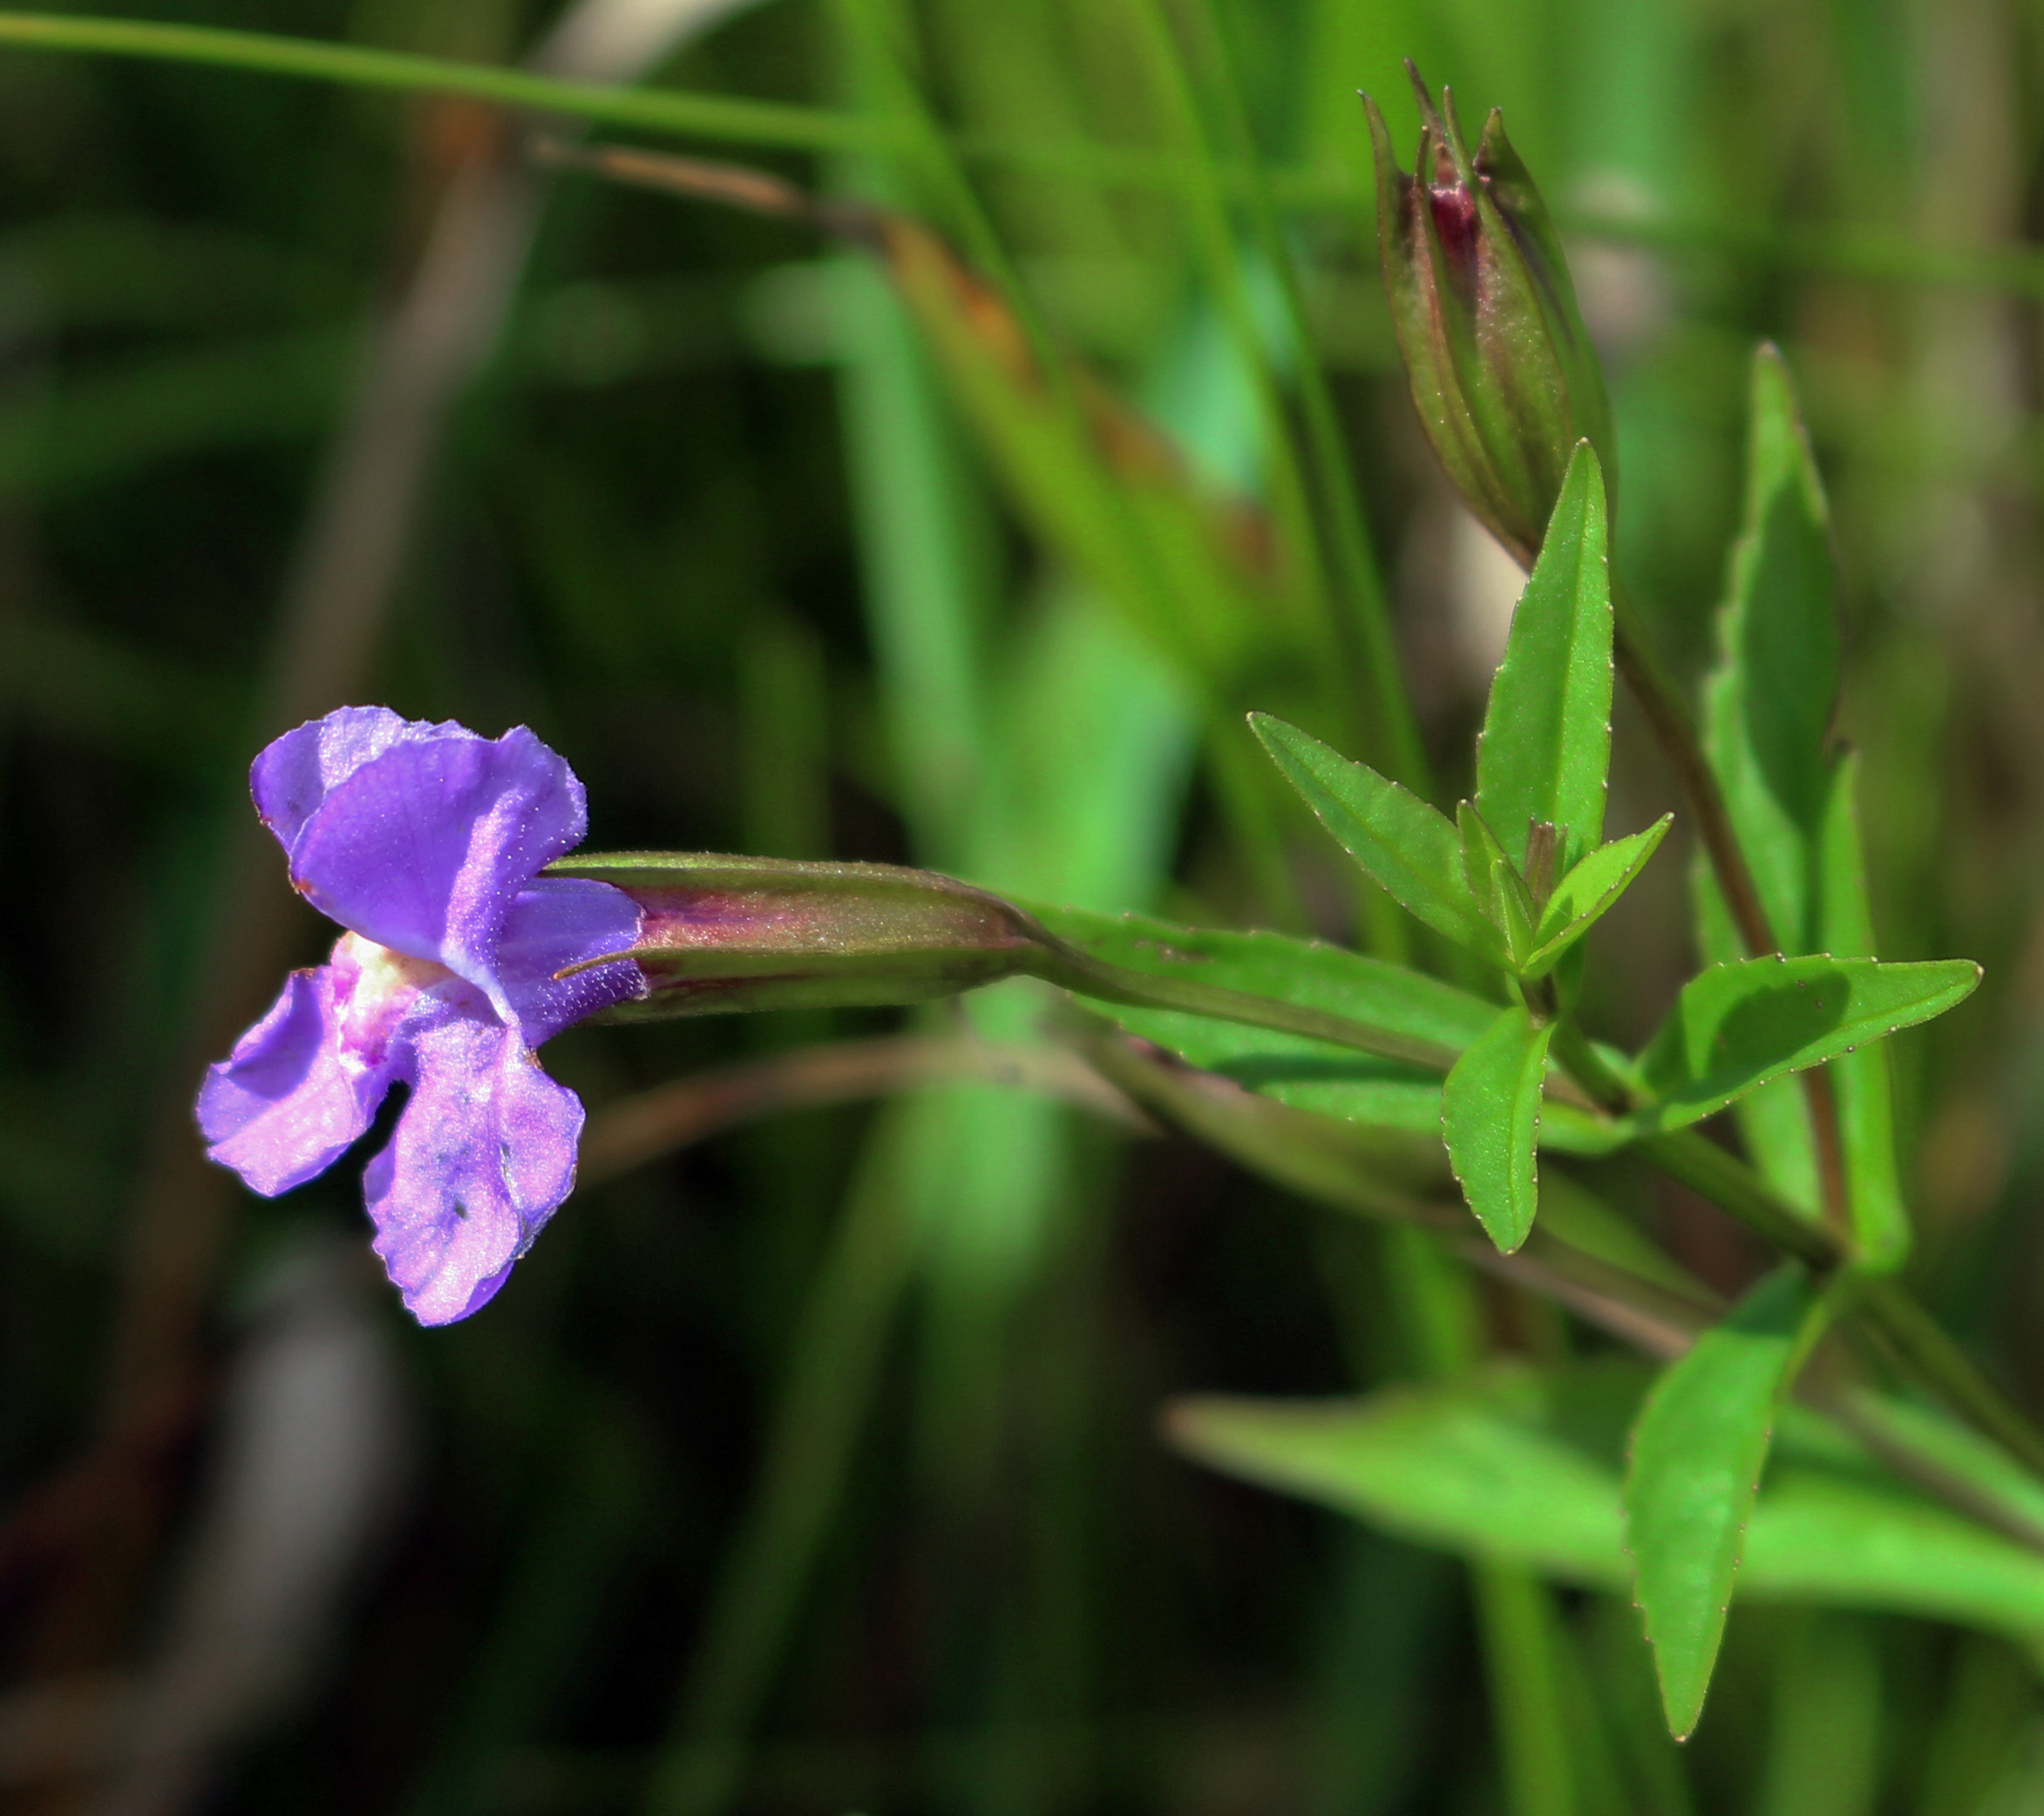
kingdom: Plantae
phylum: Tracheophyta
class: Magnoliopsida
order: Lamiales
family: Phrymaceae
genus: Mimulus
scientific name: Mimulus ringens
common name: Allegheny monkeyflower
